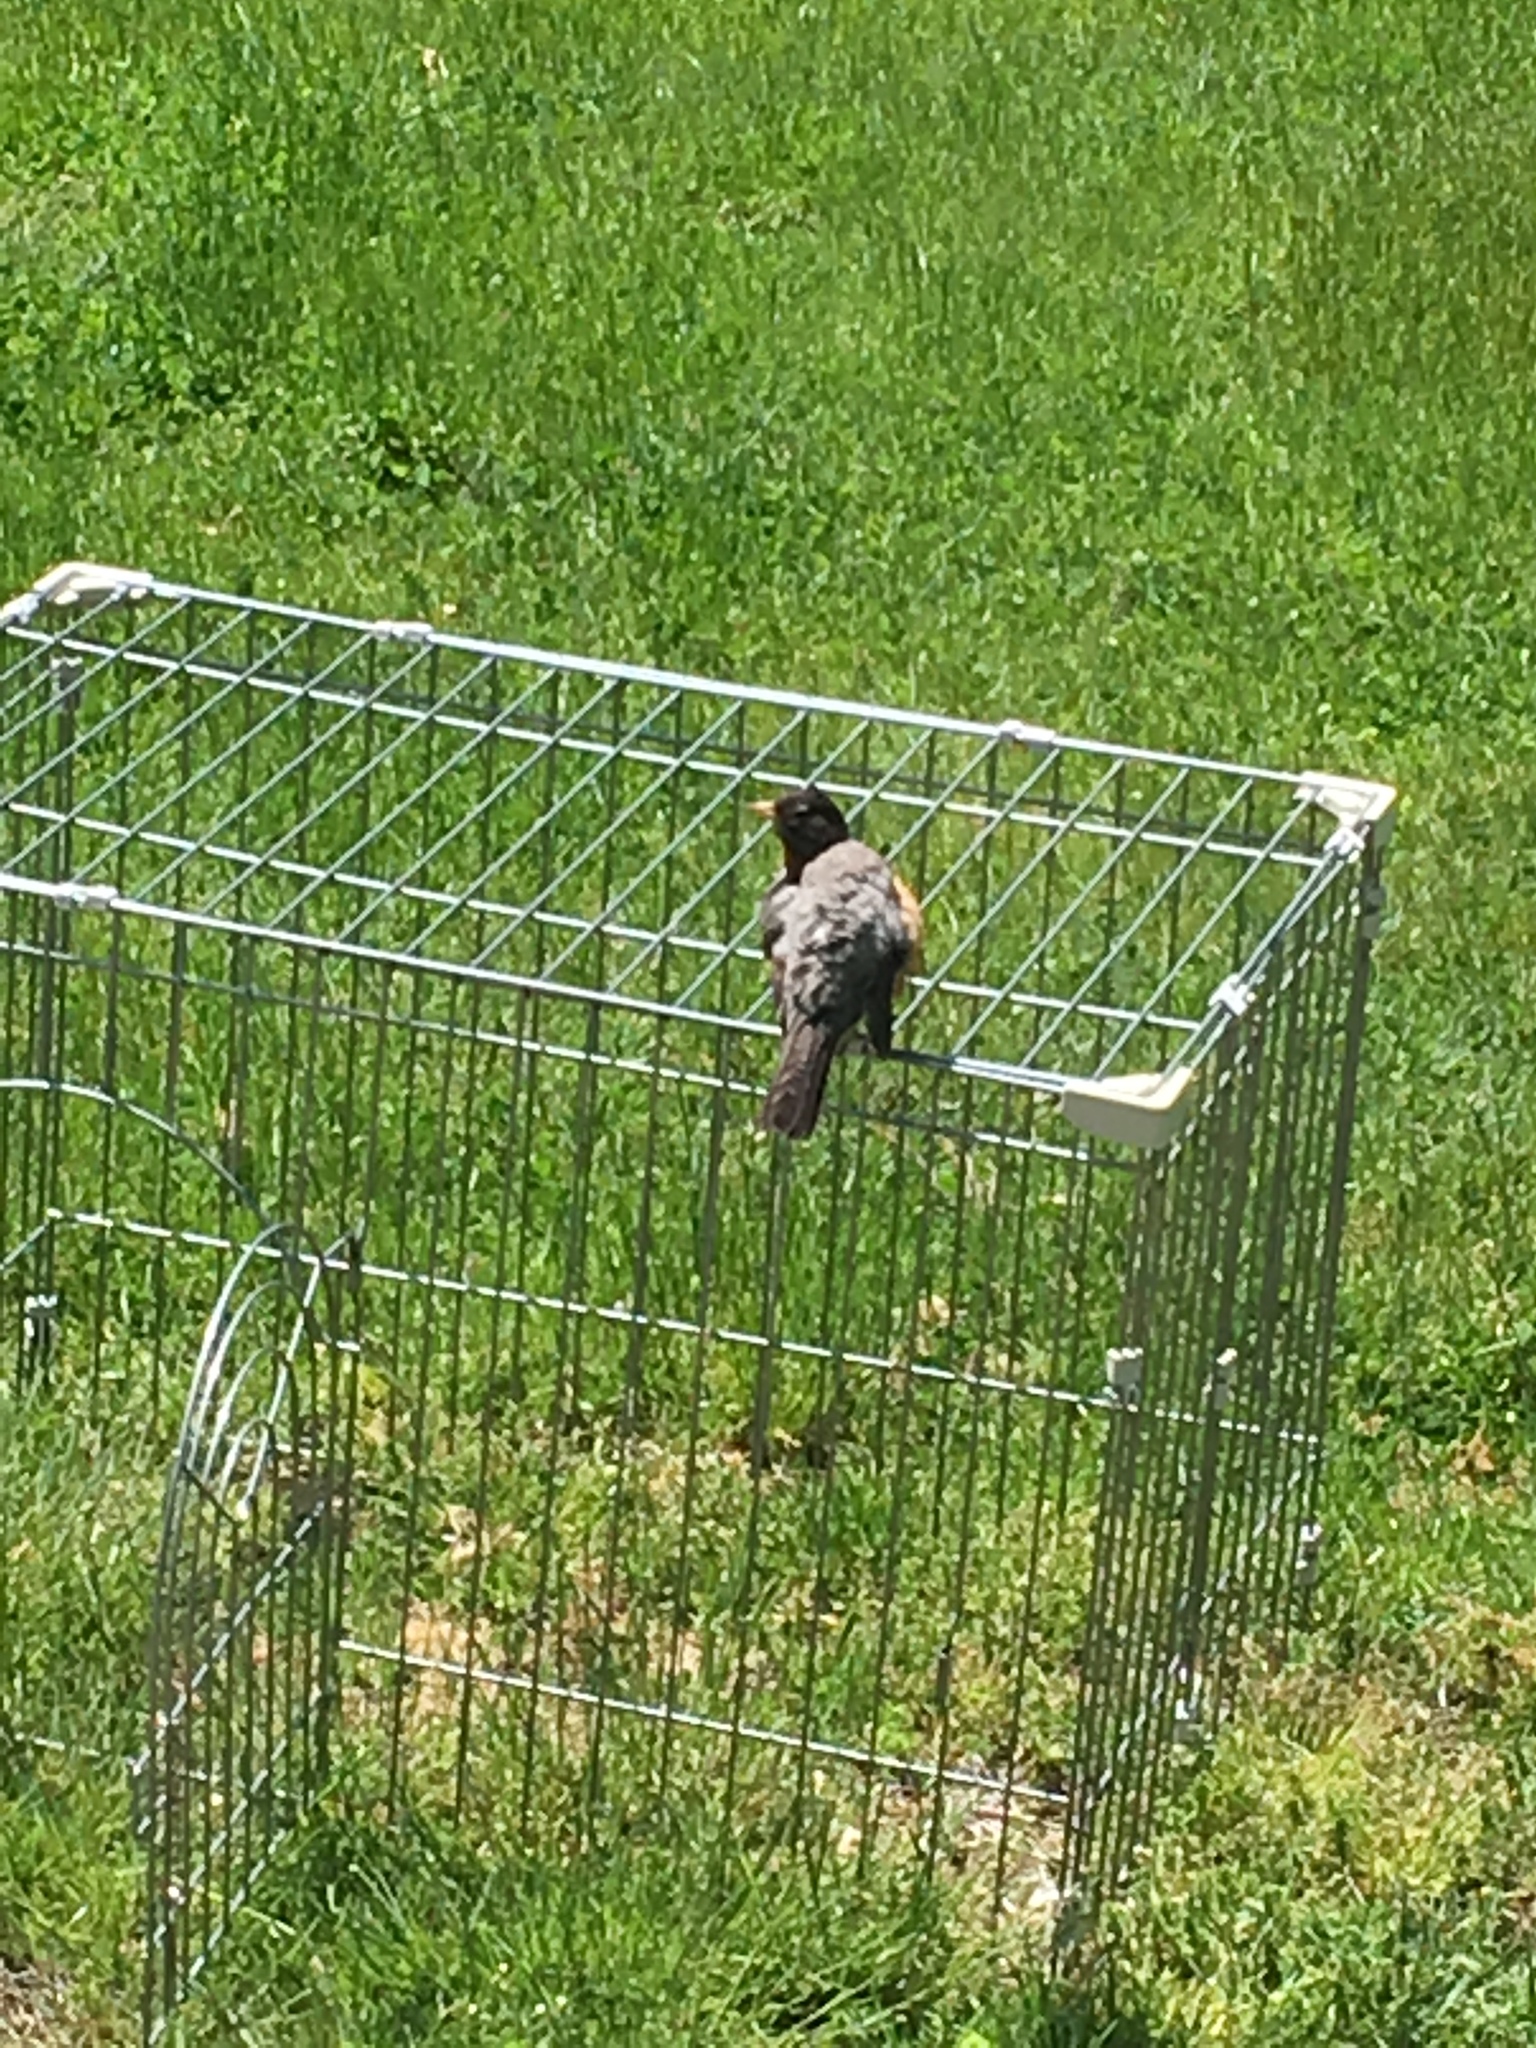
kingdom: Animalia
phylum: Chordata
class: Aves
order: Passeriformes
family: Turdidae
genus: Turdus
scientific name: Turdus migratorius
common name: American robin
